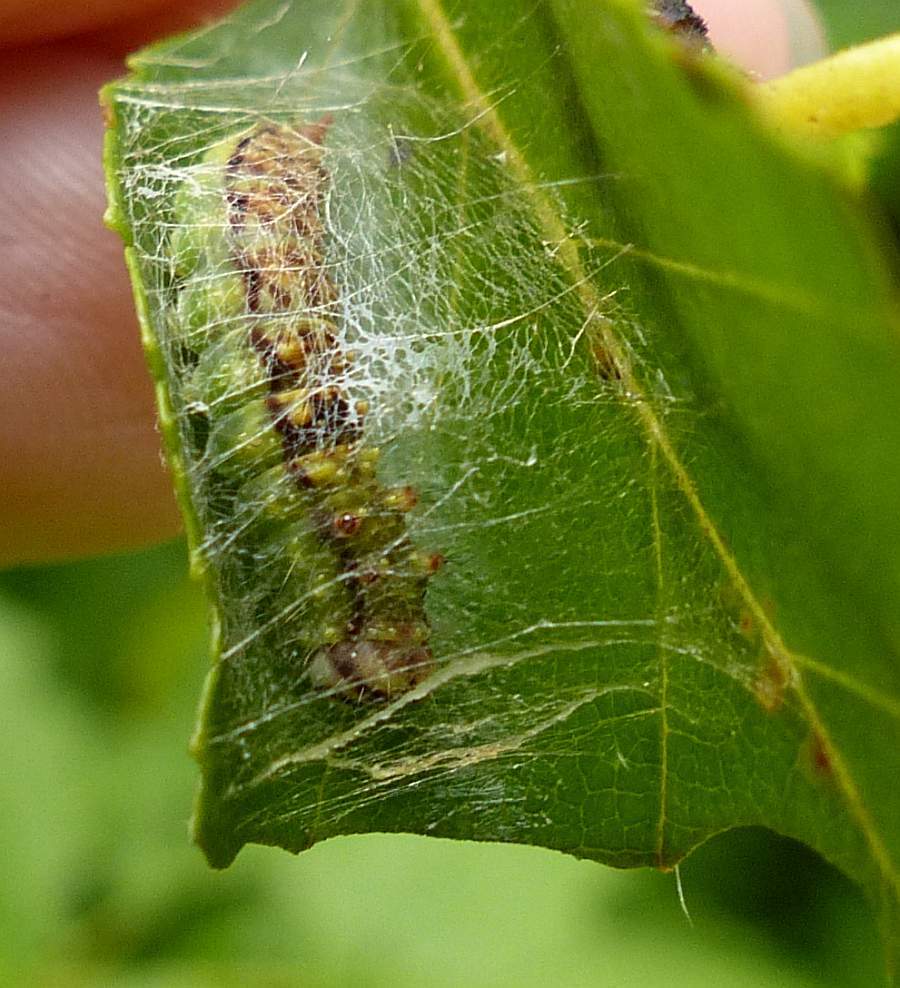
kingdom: Animalia
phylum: Arthropoda
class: Insecta
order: Lepidoptera
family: Drepanidae
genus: Drepana
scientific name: Drepana arcuata
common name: Arched hooktip moth
